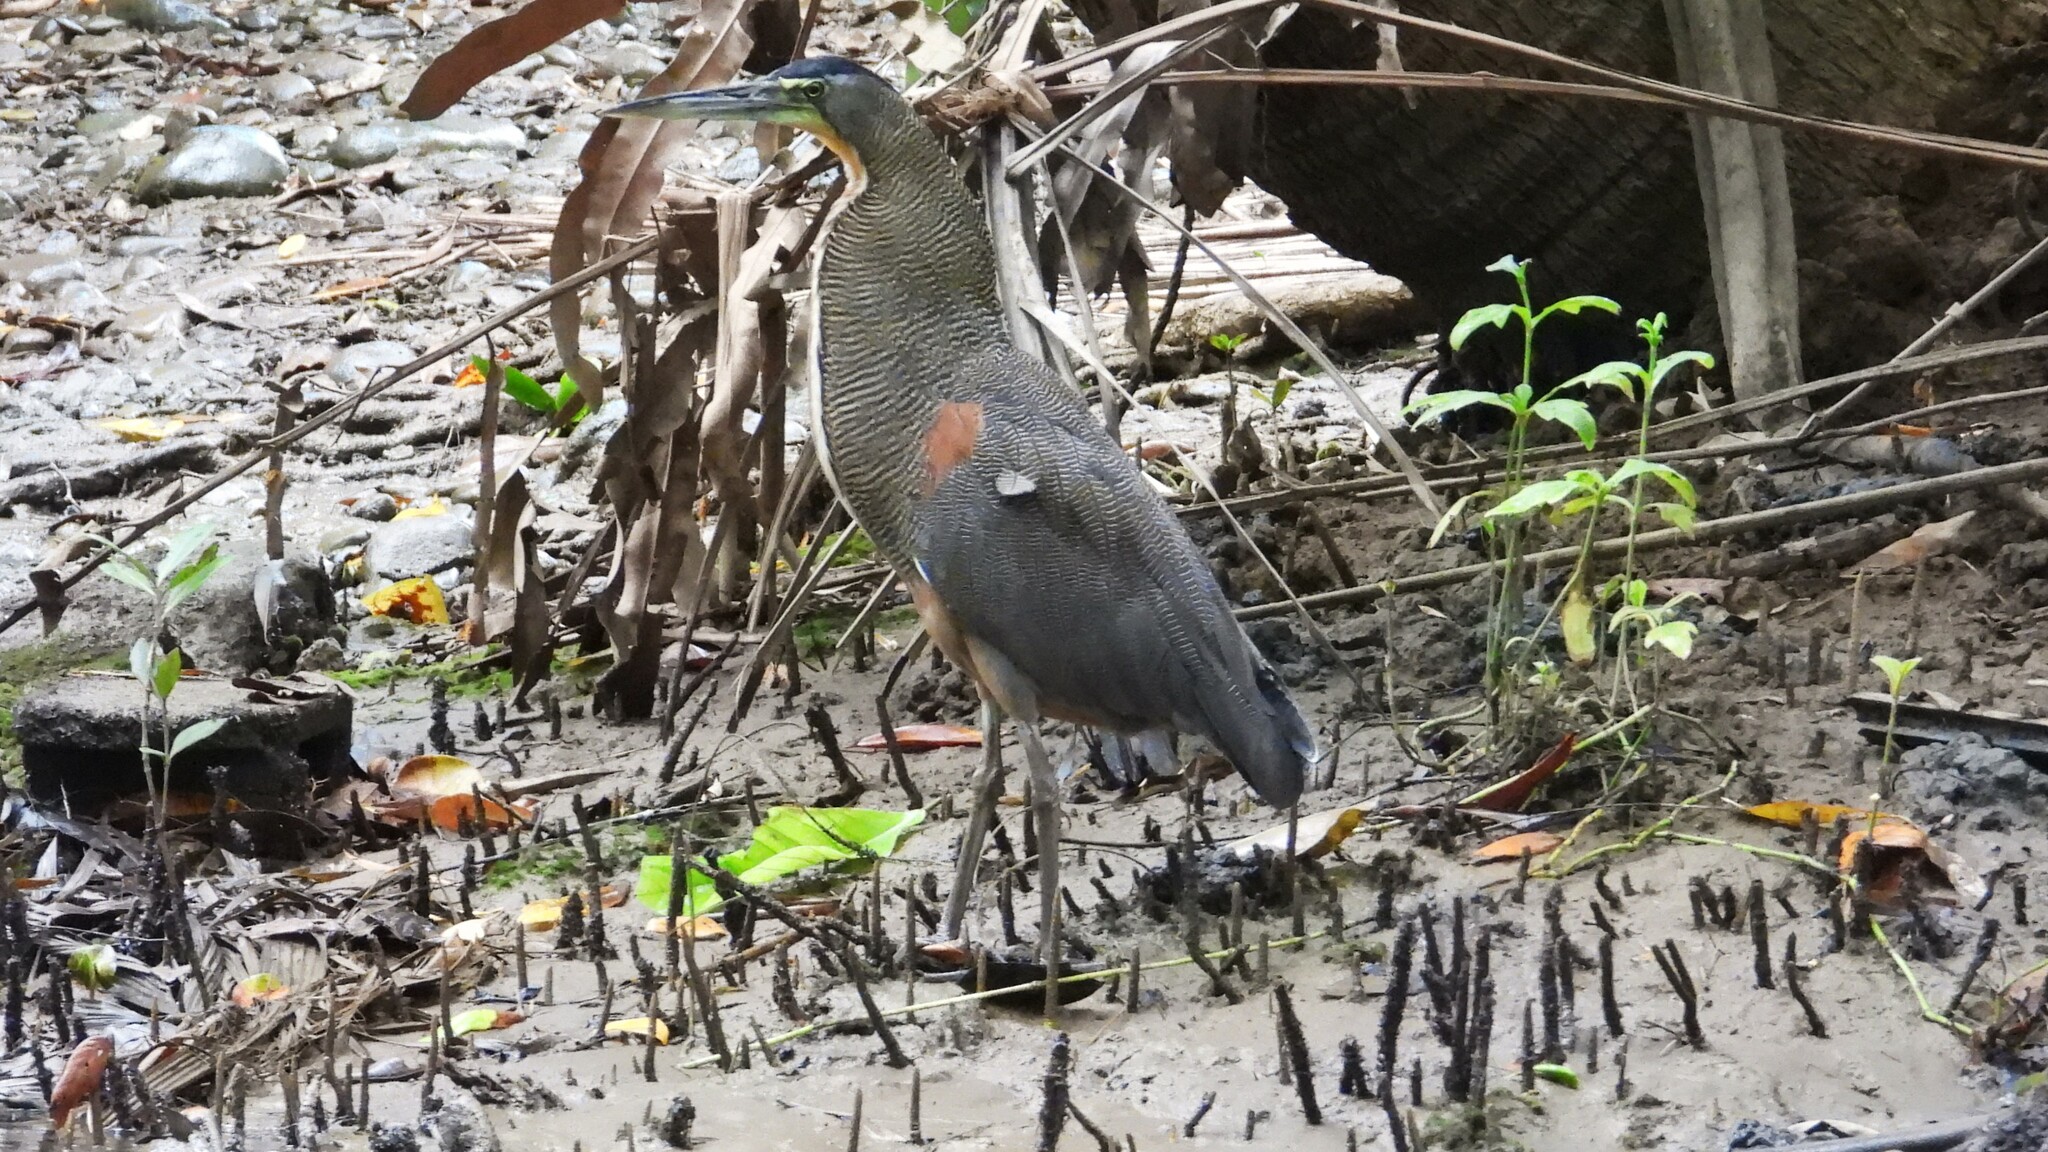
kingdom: Animalia
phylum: Chordata
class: Aves
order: Pelecaniformes
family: Ardeidae
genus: Tigrisoma
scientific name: Tigrisoma mexicanum
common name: Bare-throated tiger-heron
